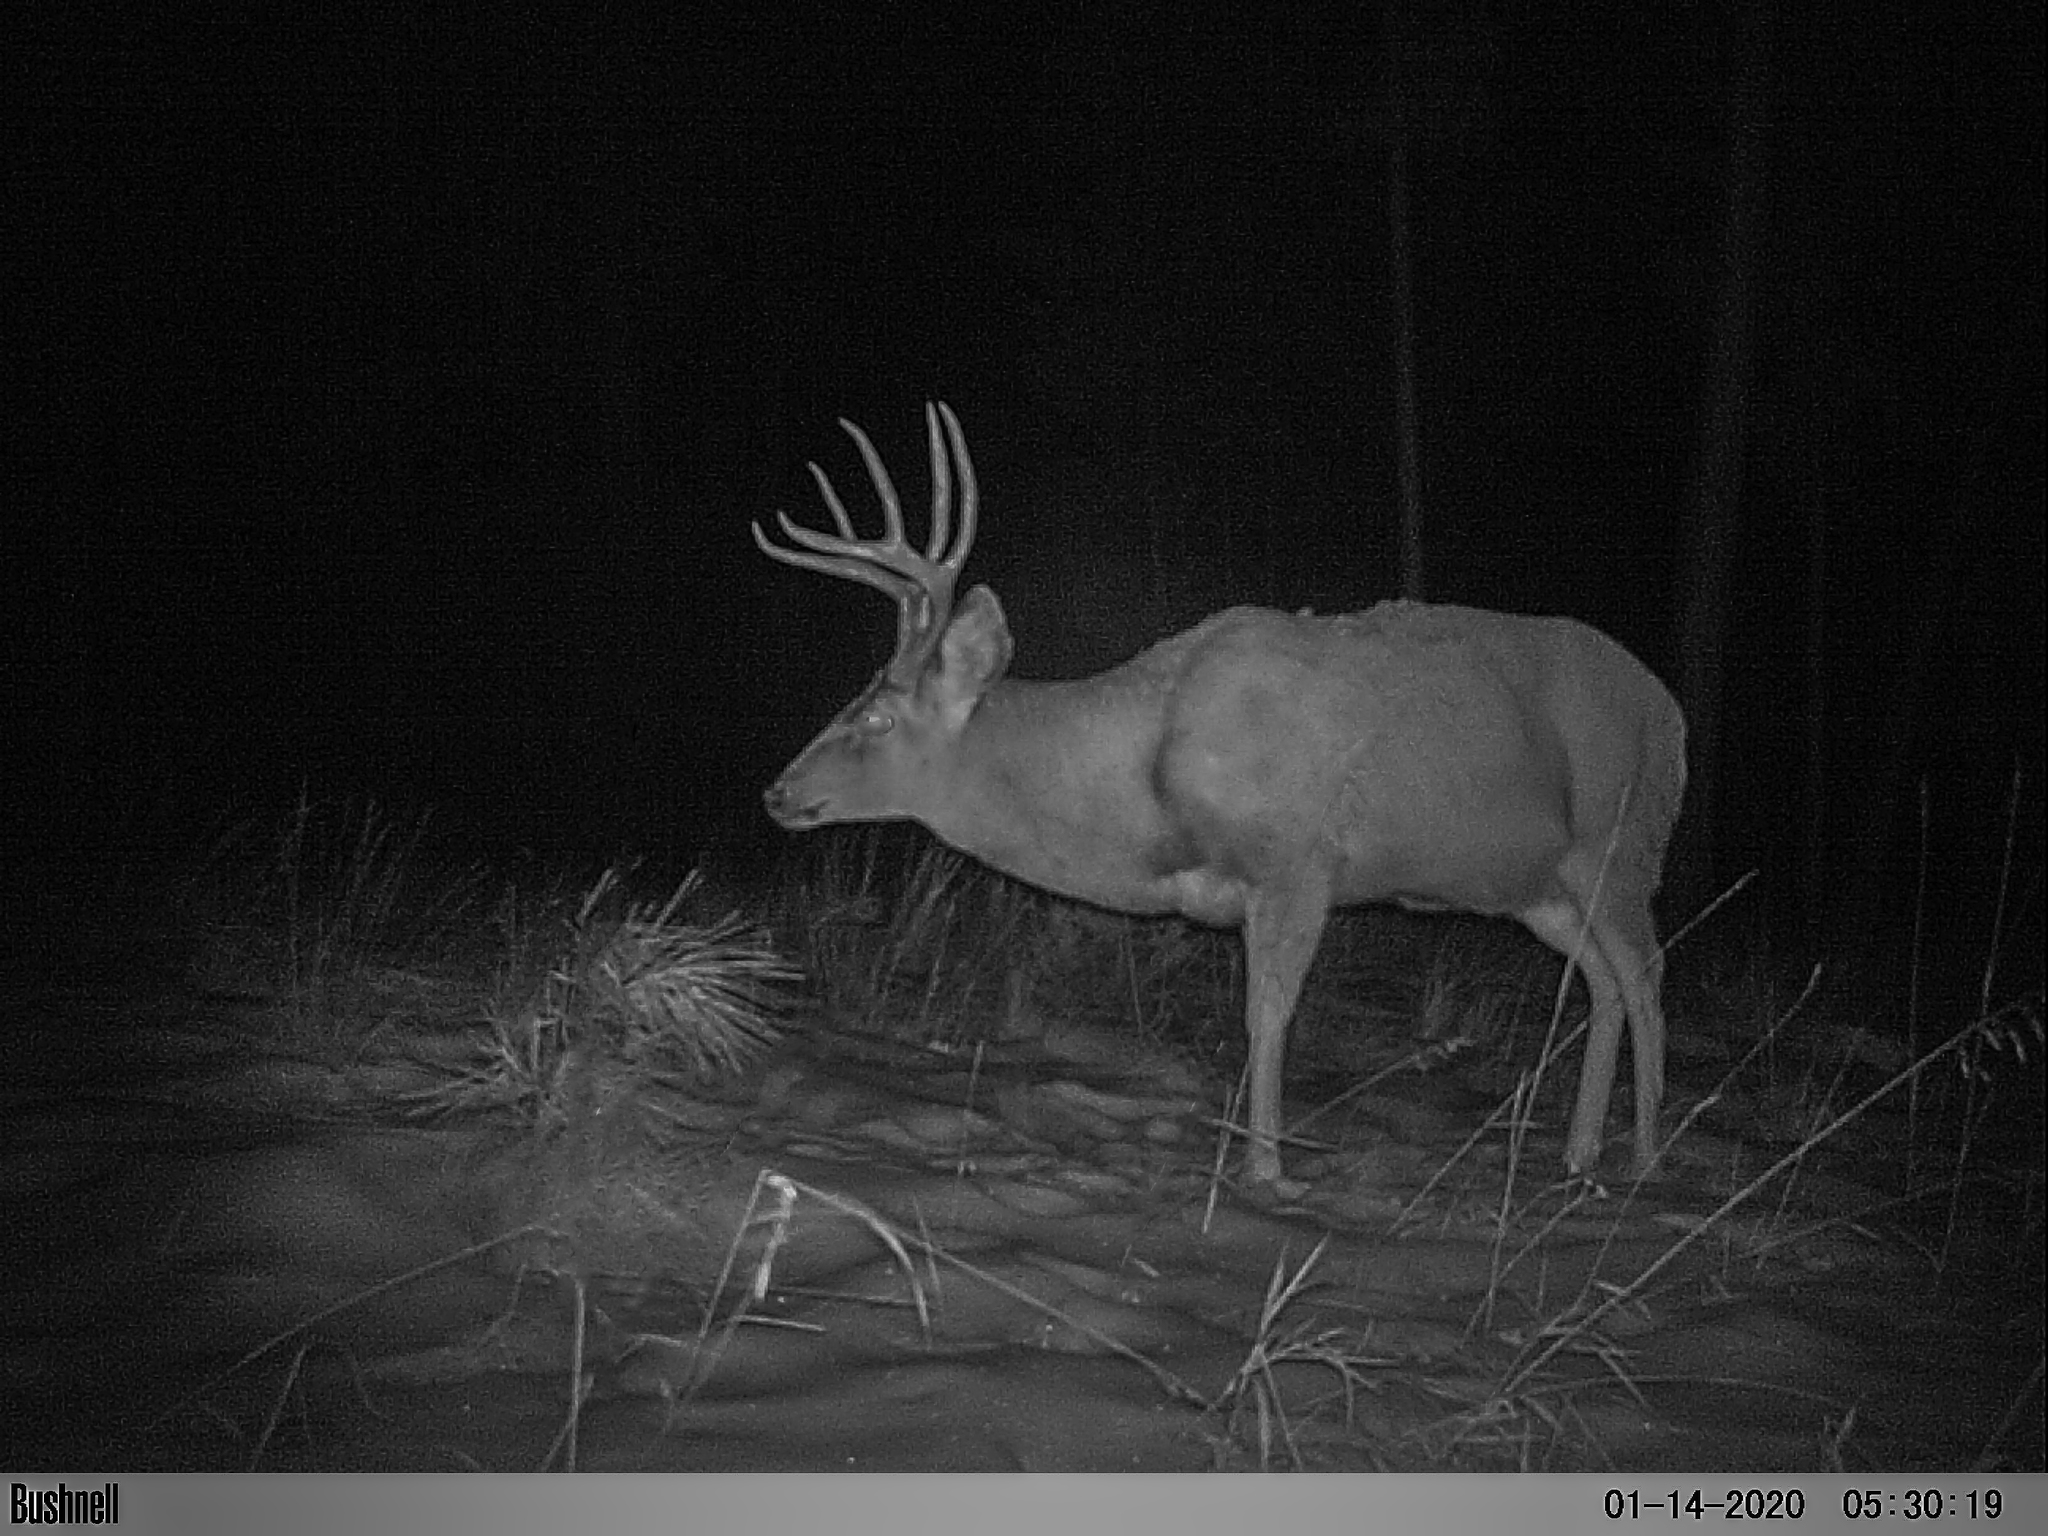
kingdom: Animalia
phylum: Chordata
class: Mammalia
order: Artiodactyla
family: Cervidae
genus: Odocoileus
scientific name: Odocoileus hemionus
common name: Mule deer
